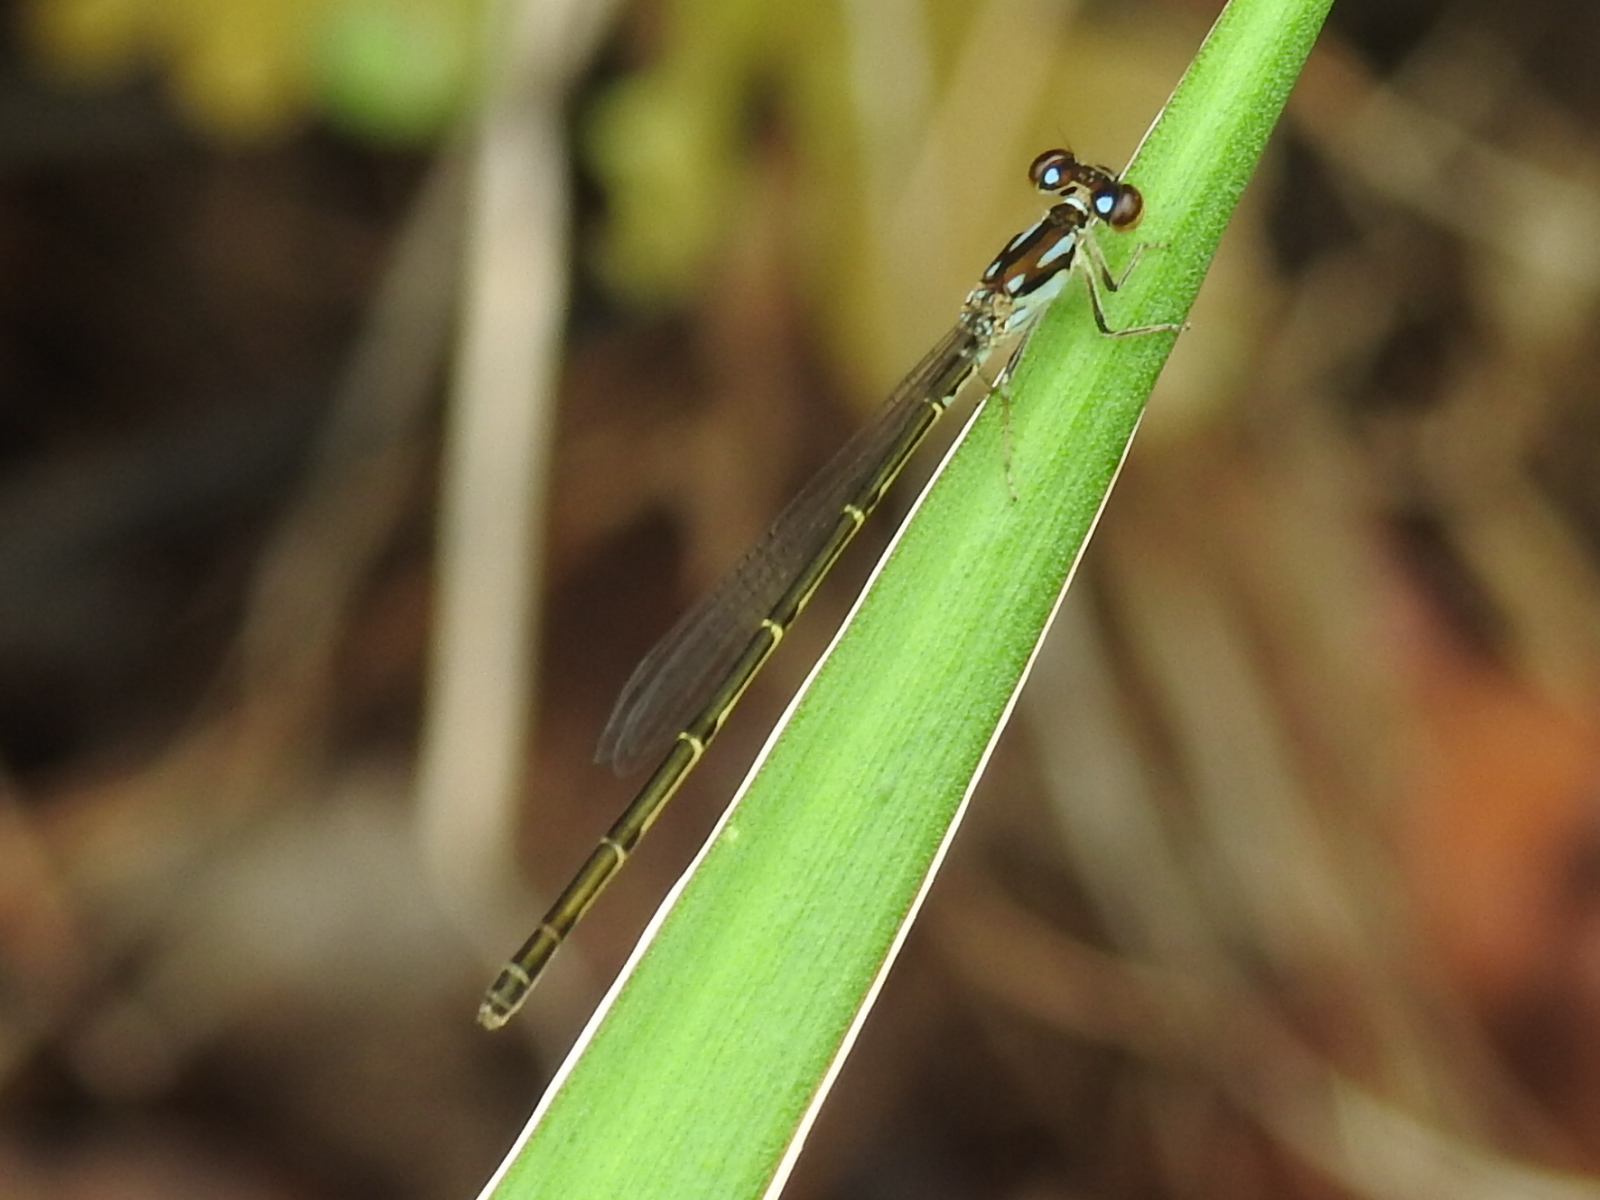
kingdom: Animalia
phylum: Arthropoda
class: Insecta
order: Odonata
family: Coenagrionidae
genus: Ischnura
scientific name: Ischnura posita
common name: Fragile forktail
